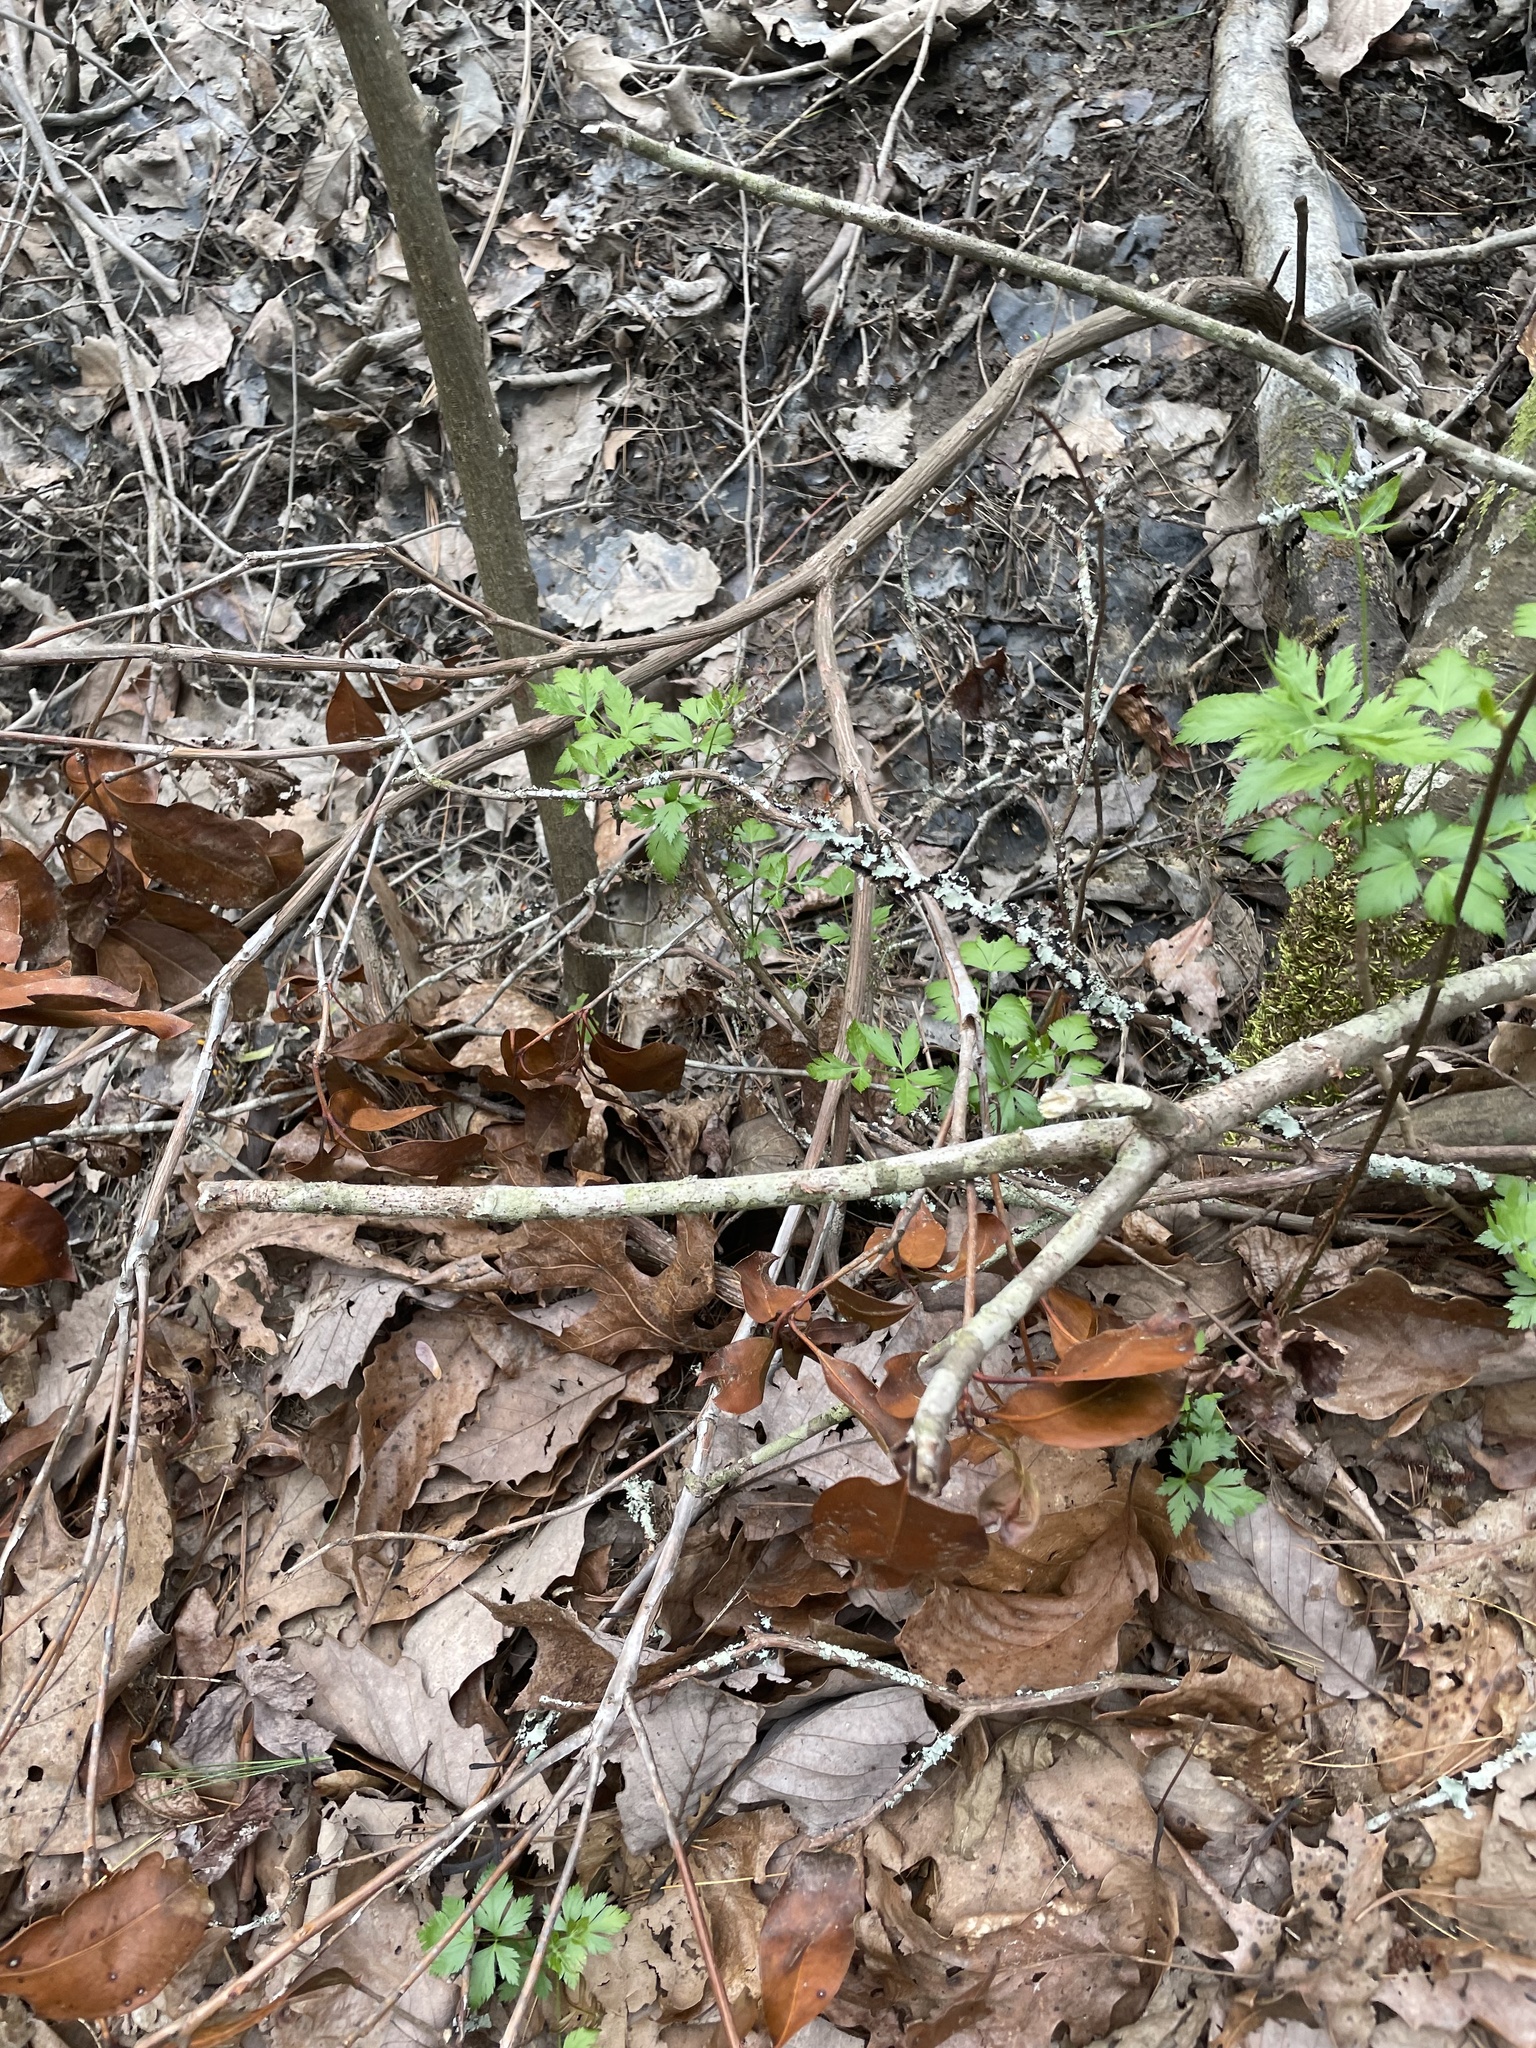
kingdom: Plantae
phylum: Tracheophyta
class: Magnoliopsida
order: Ranunculales
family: Ranunculaceae
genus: Xanthorhiza
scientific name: Xanthorhiza simplicissima
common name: Yellowroot
